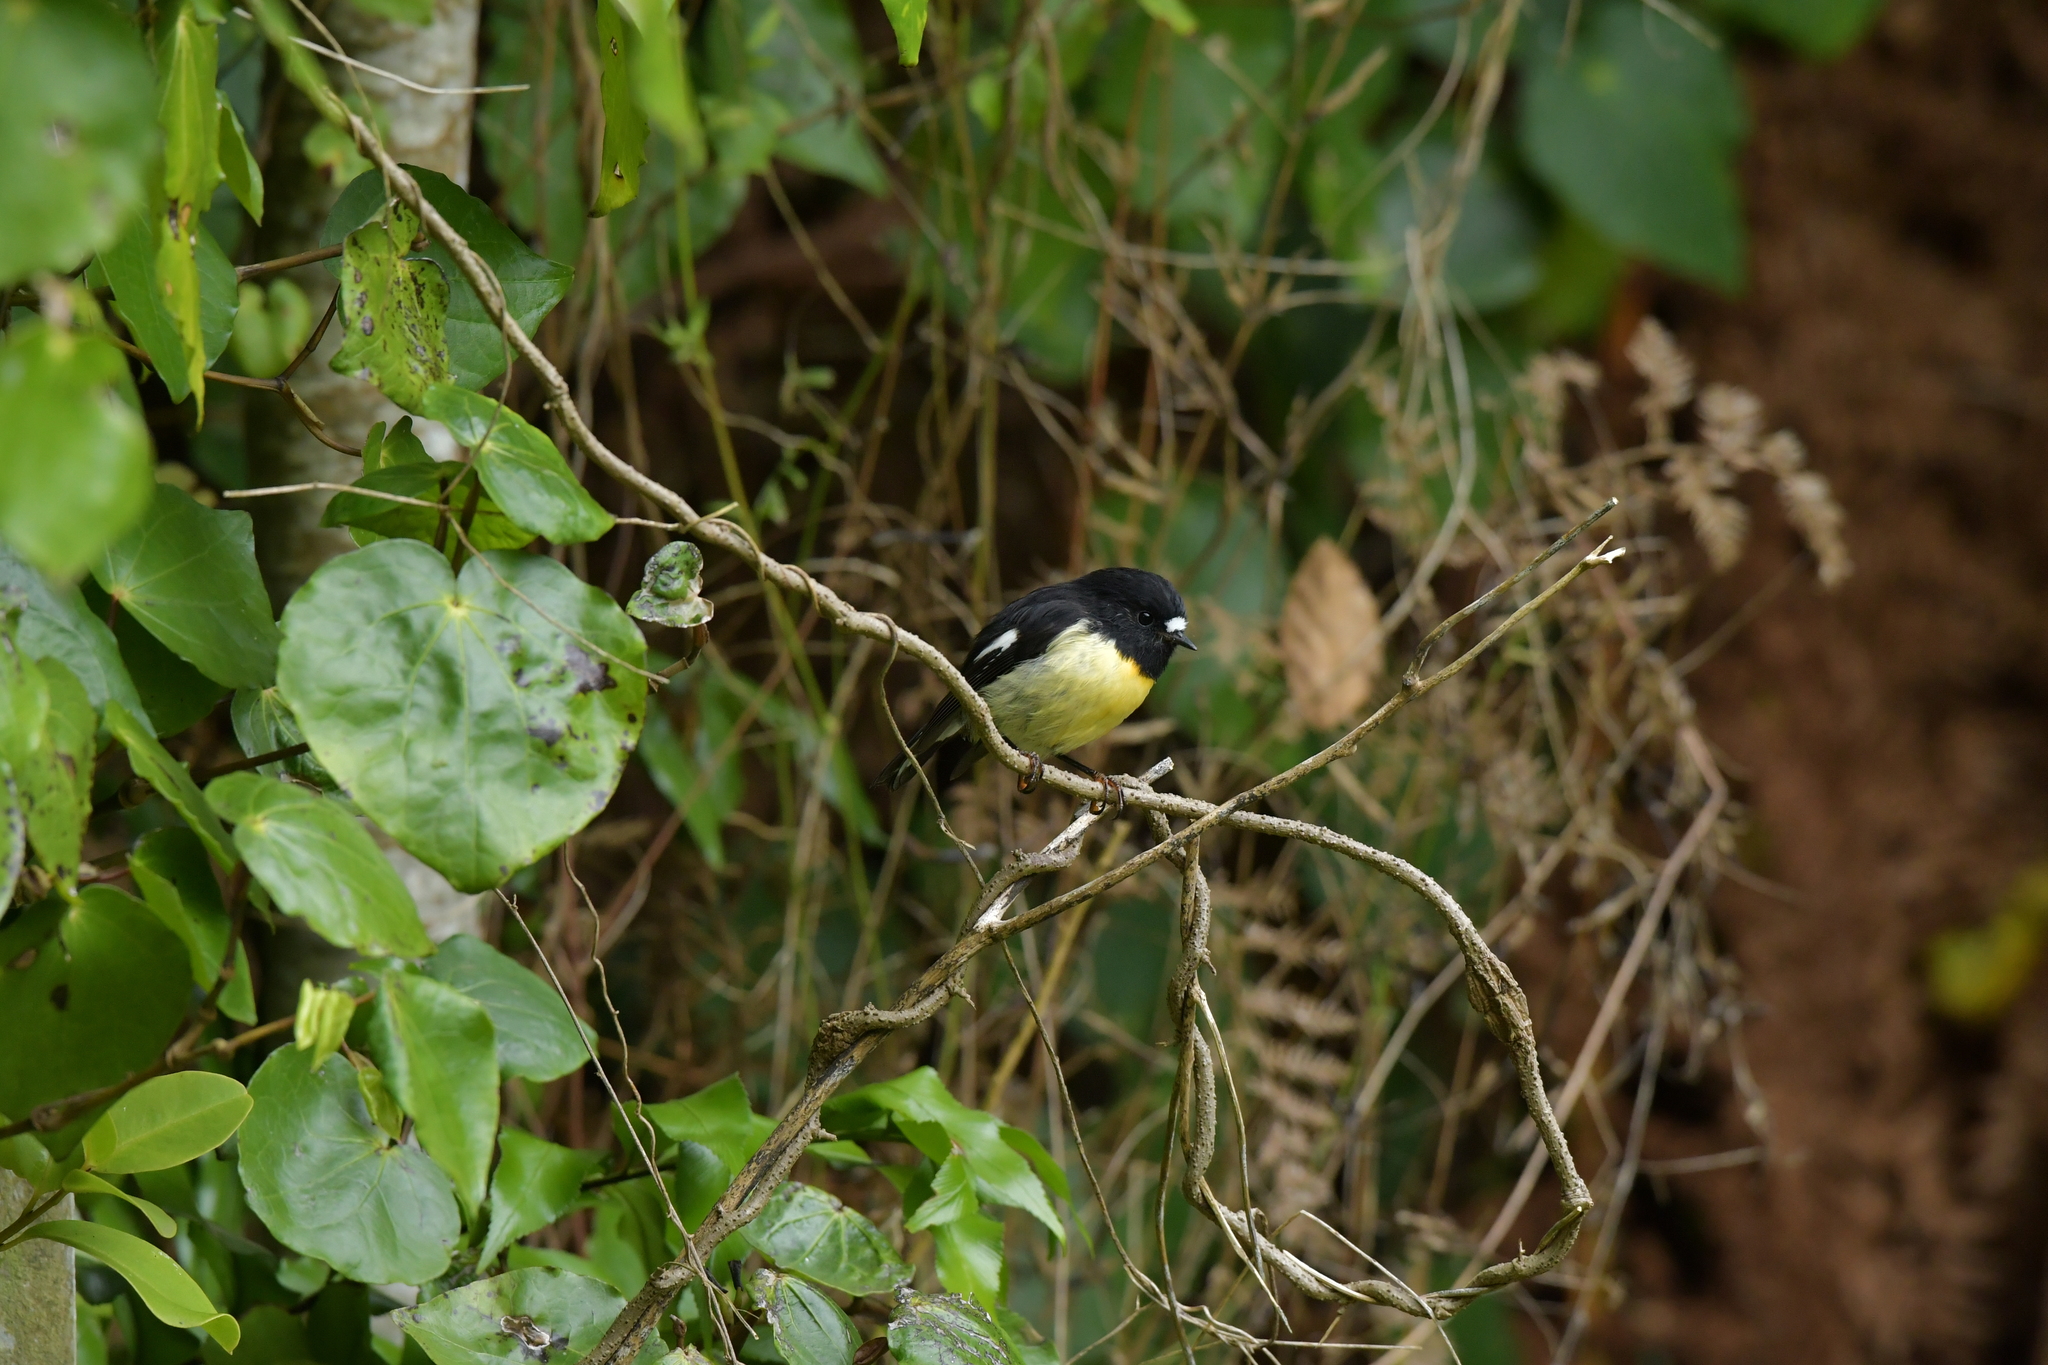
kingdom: Animalia
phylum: Chordata
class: Aves
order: Passeriformes
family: Petroicidae
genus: Petroica
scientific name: Petroica macrocephala
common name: Tomtit
